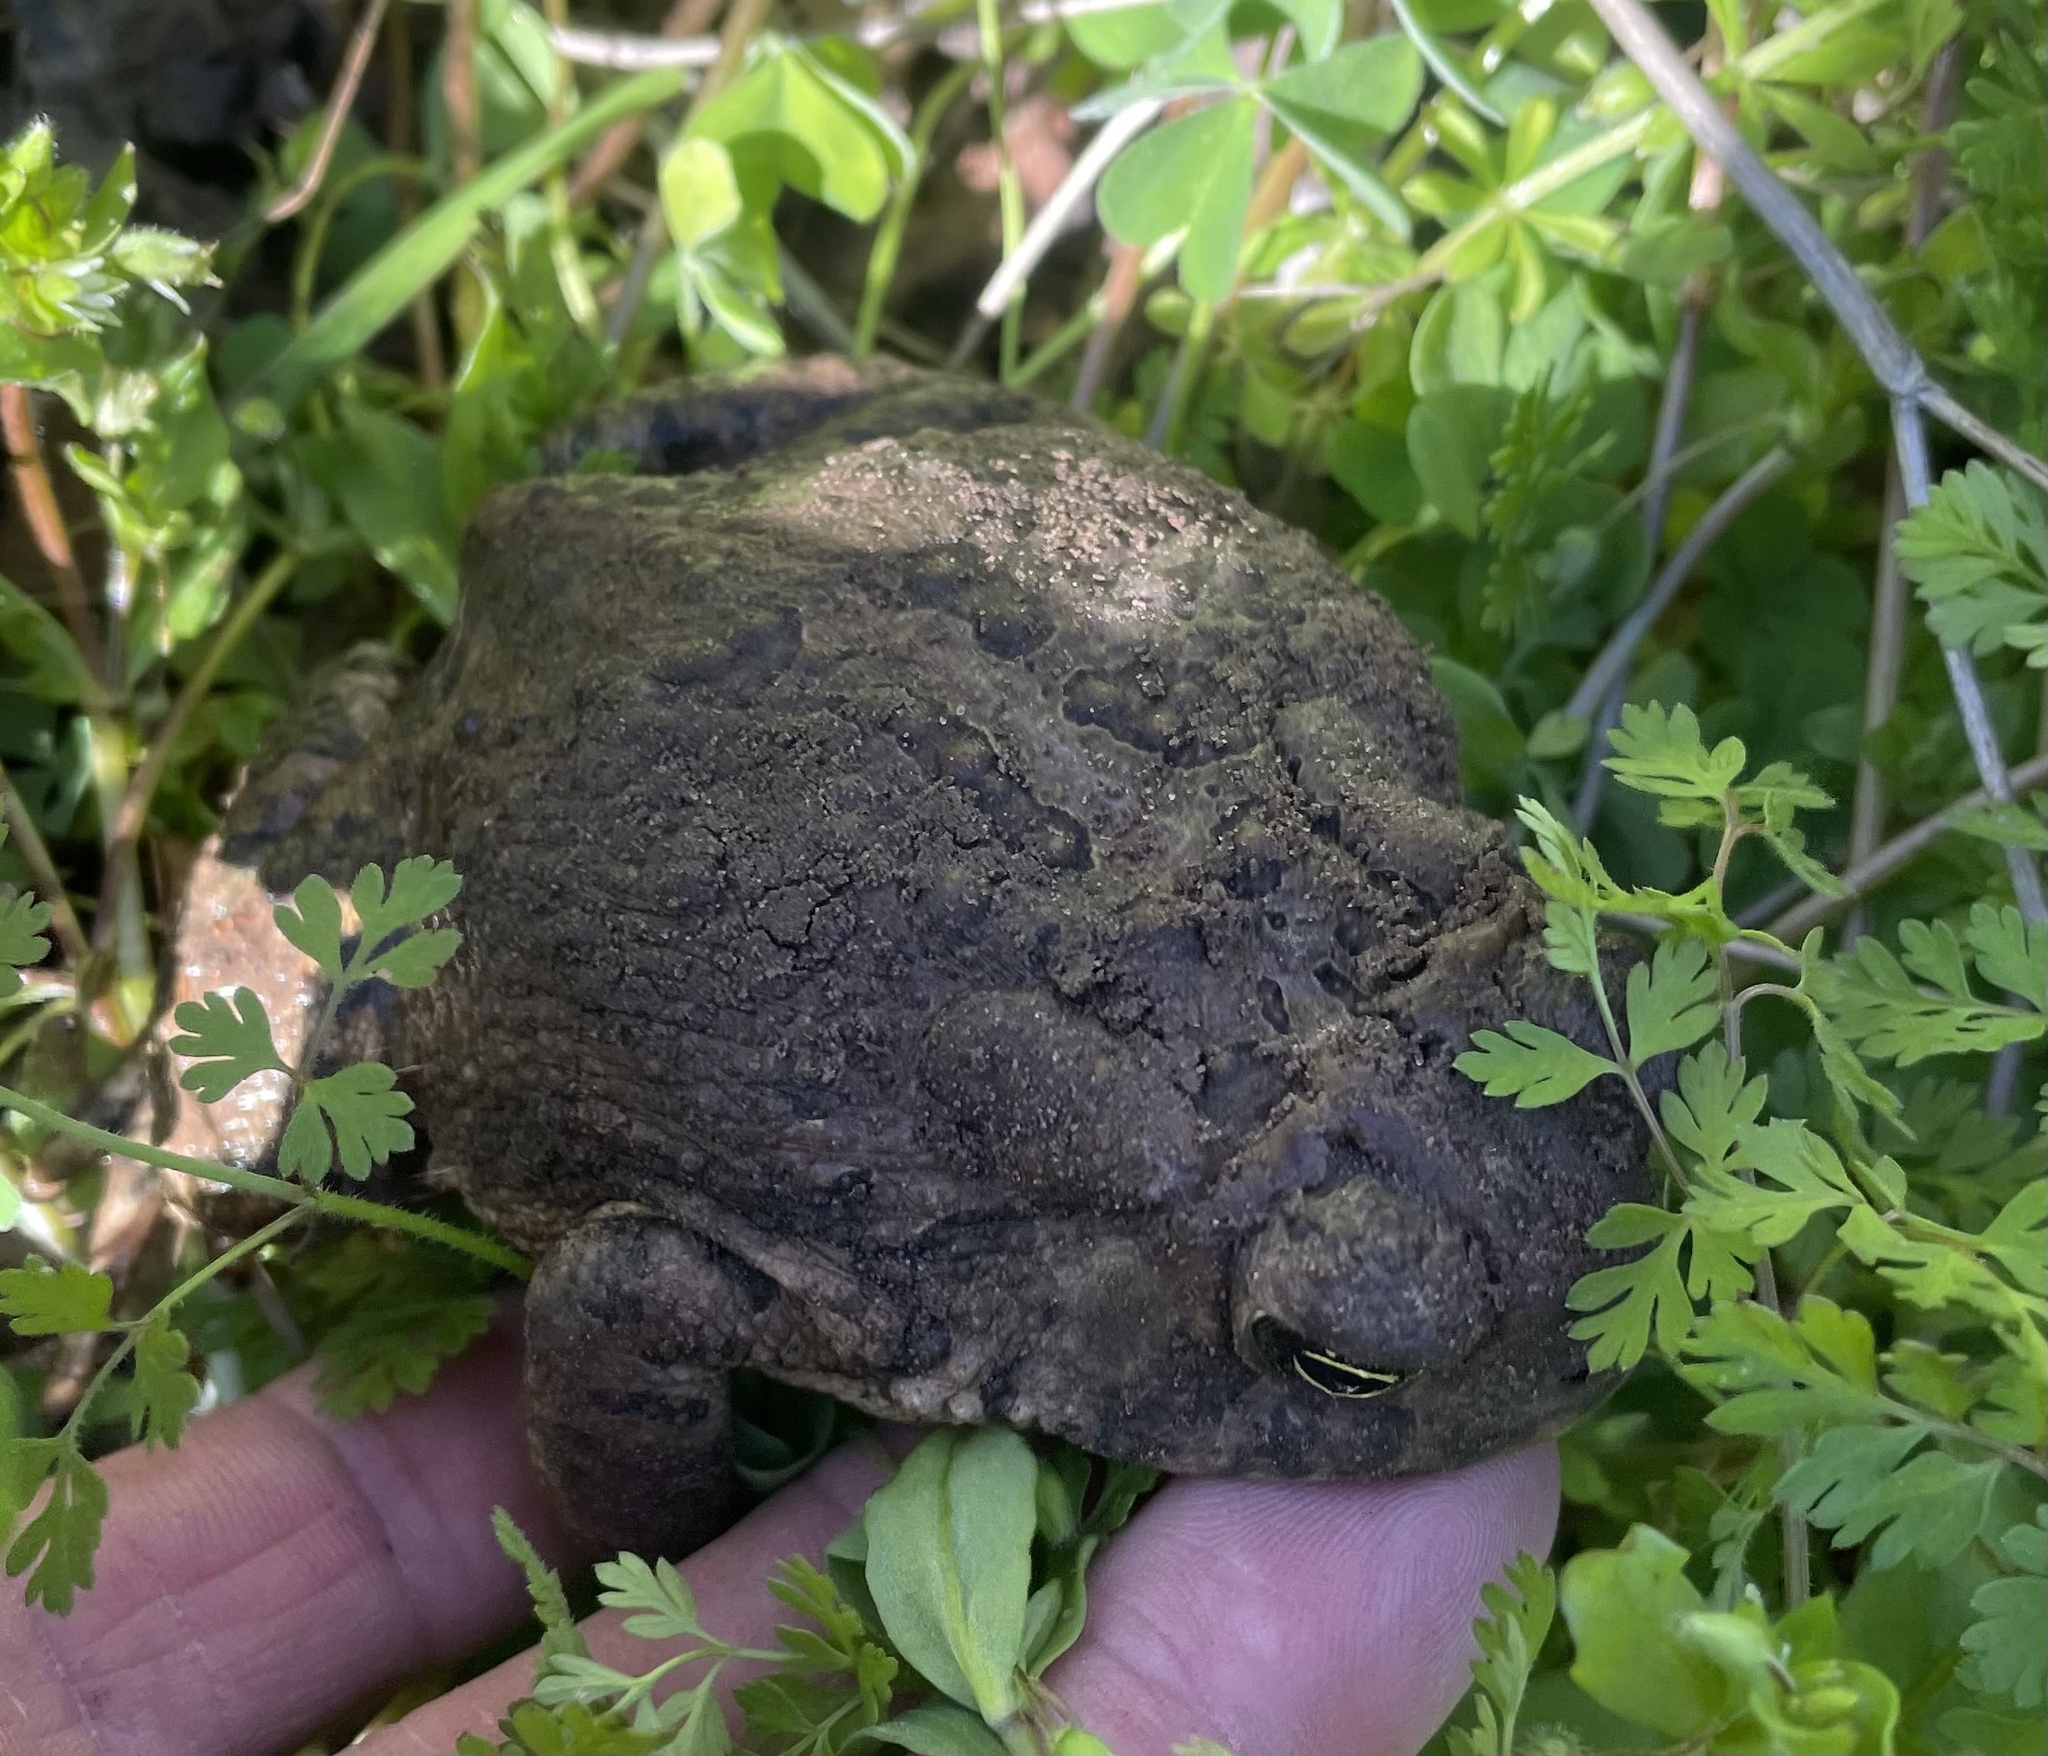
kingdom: Animalia
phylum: Chordata
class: Amphibia
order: Anura
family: Bufonidae
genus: Anaxyrus
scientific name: Anaxyrus woodhousii
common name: Woodhouse's toad
